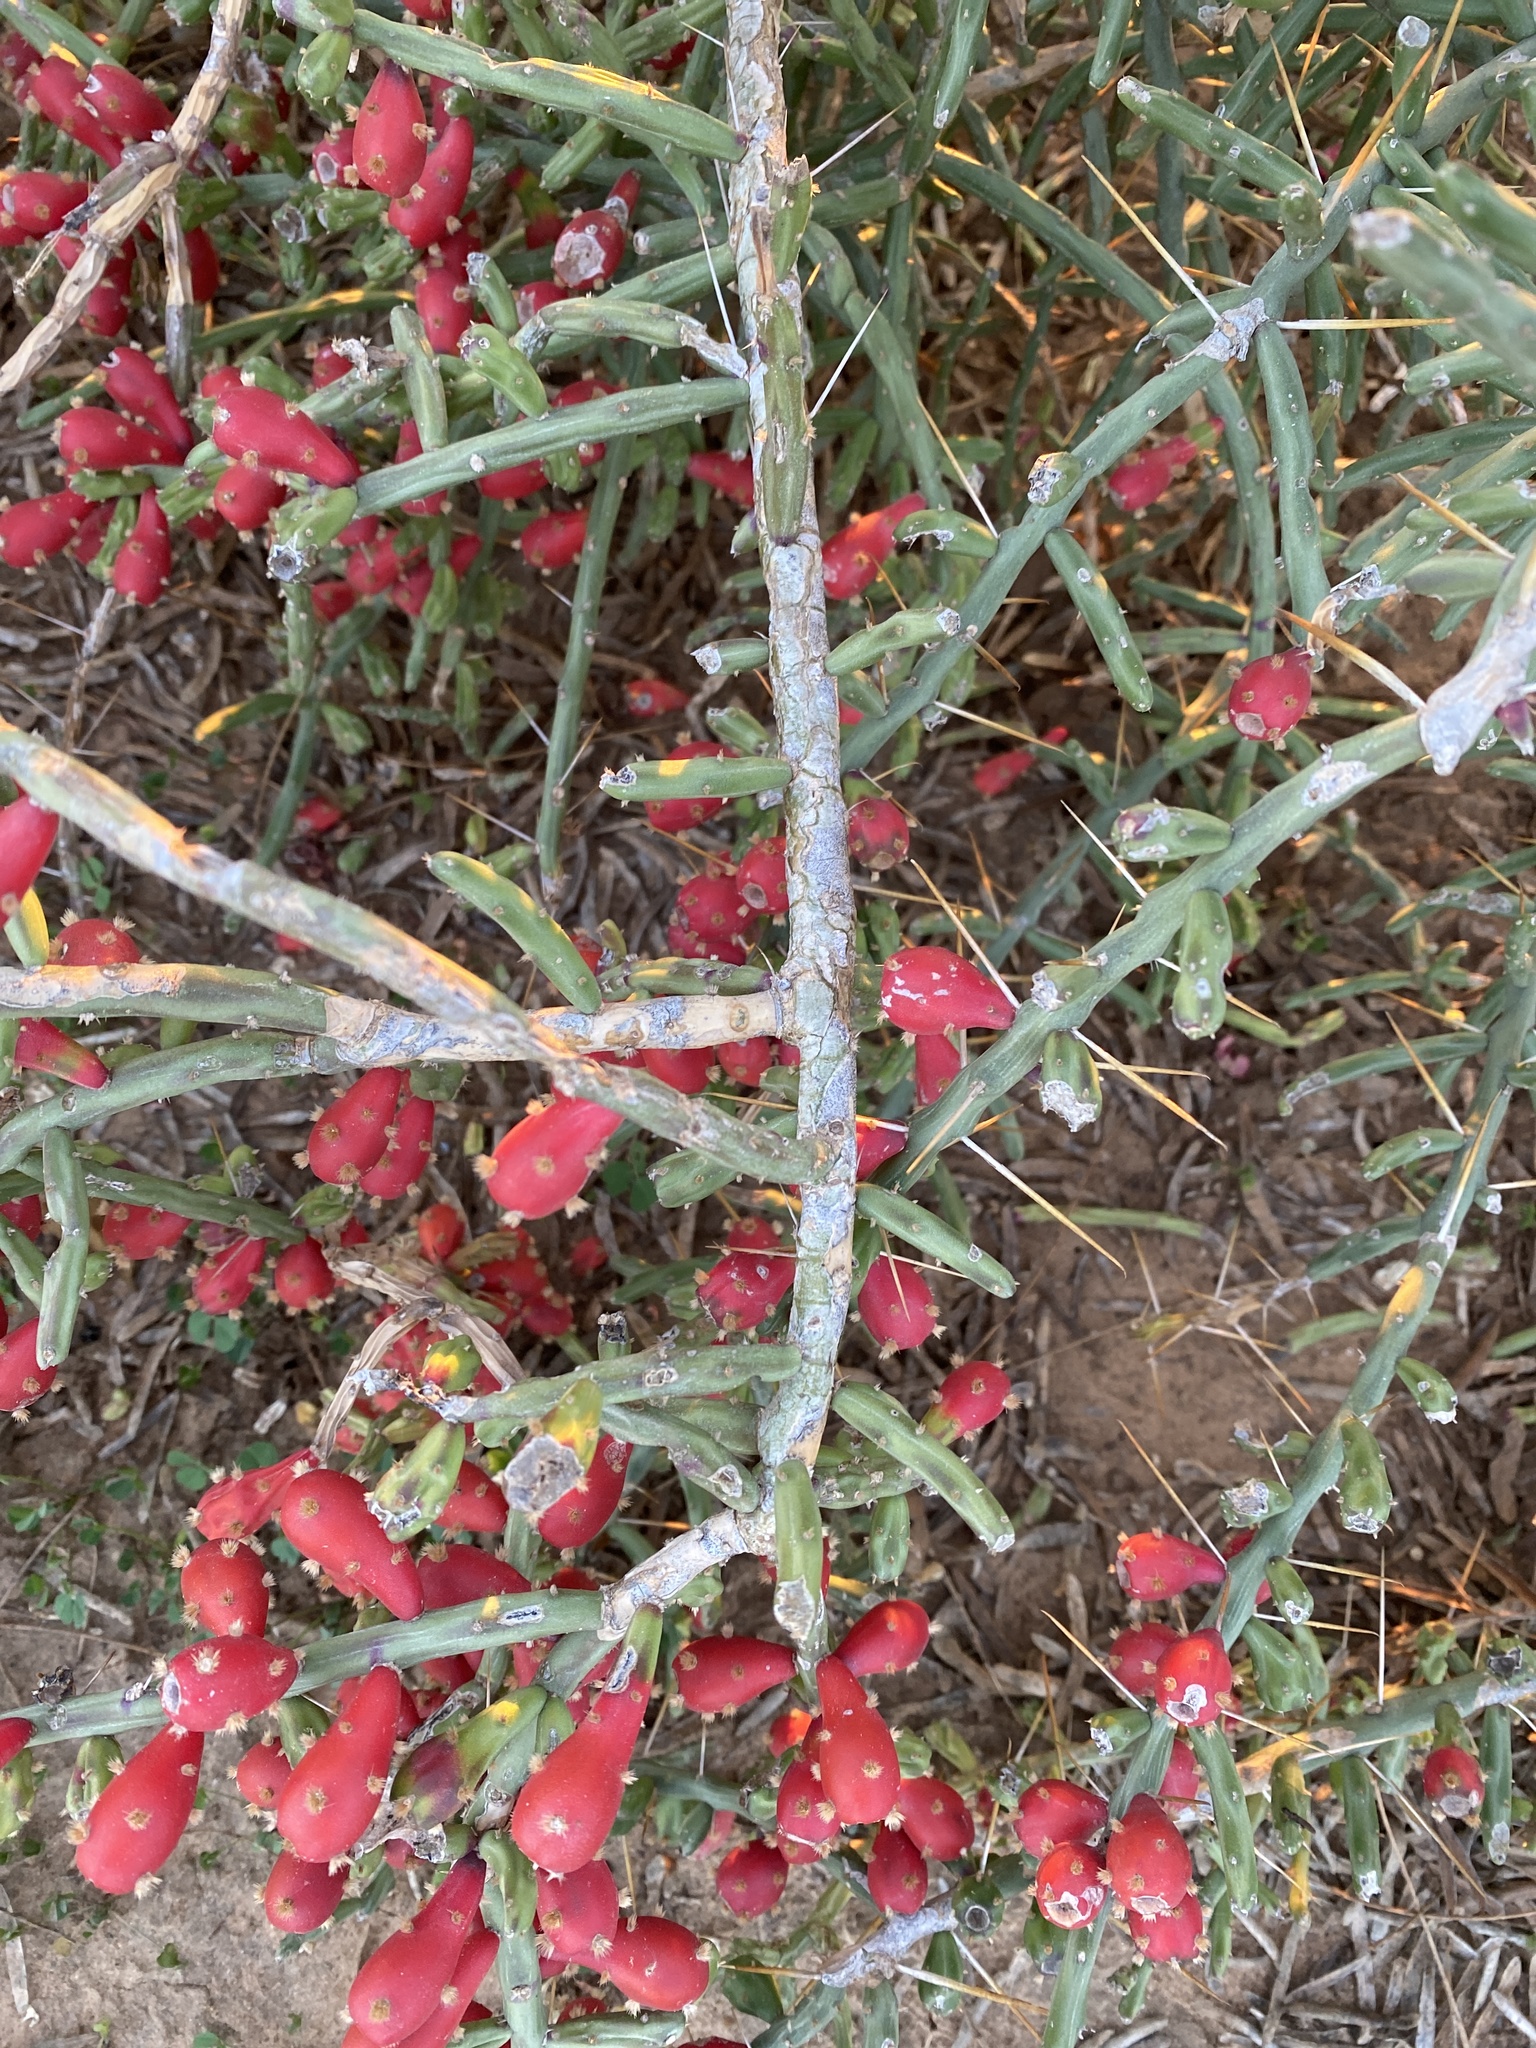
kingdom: Plantae
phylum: Tracheophyta
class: Magnoliopsida
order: Caryophyllales
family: Cactaceae
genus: Cylindropuntia
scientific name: Cylindropuntia leptocaulis
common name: Christmas cactus
